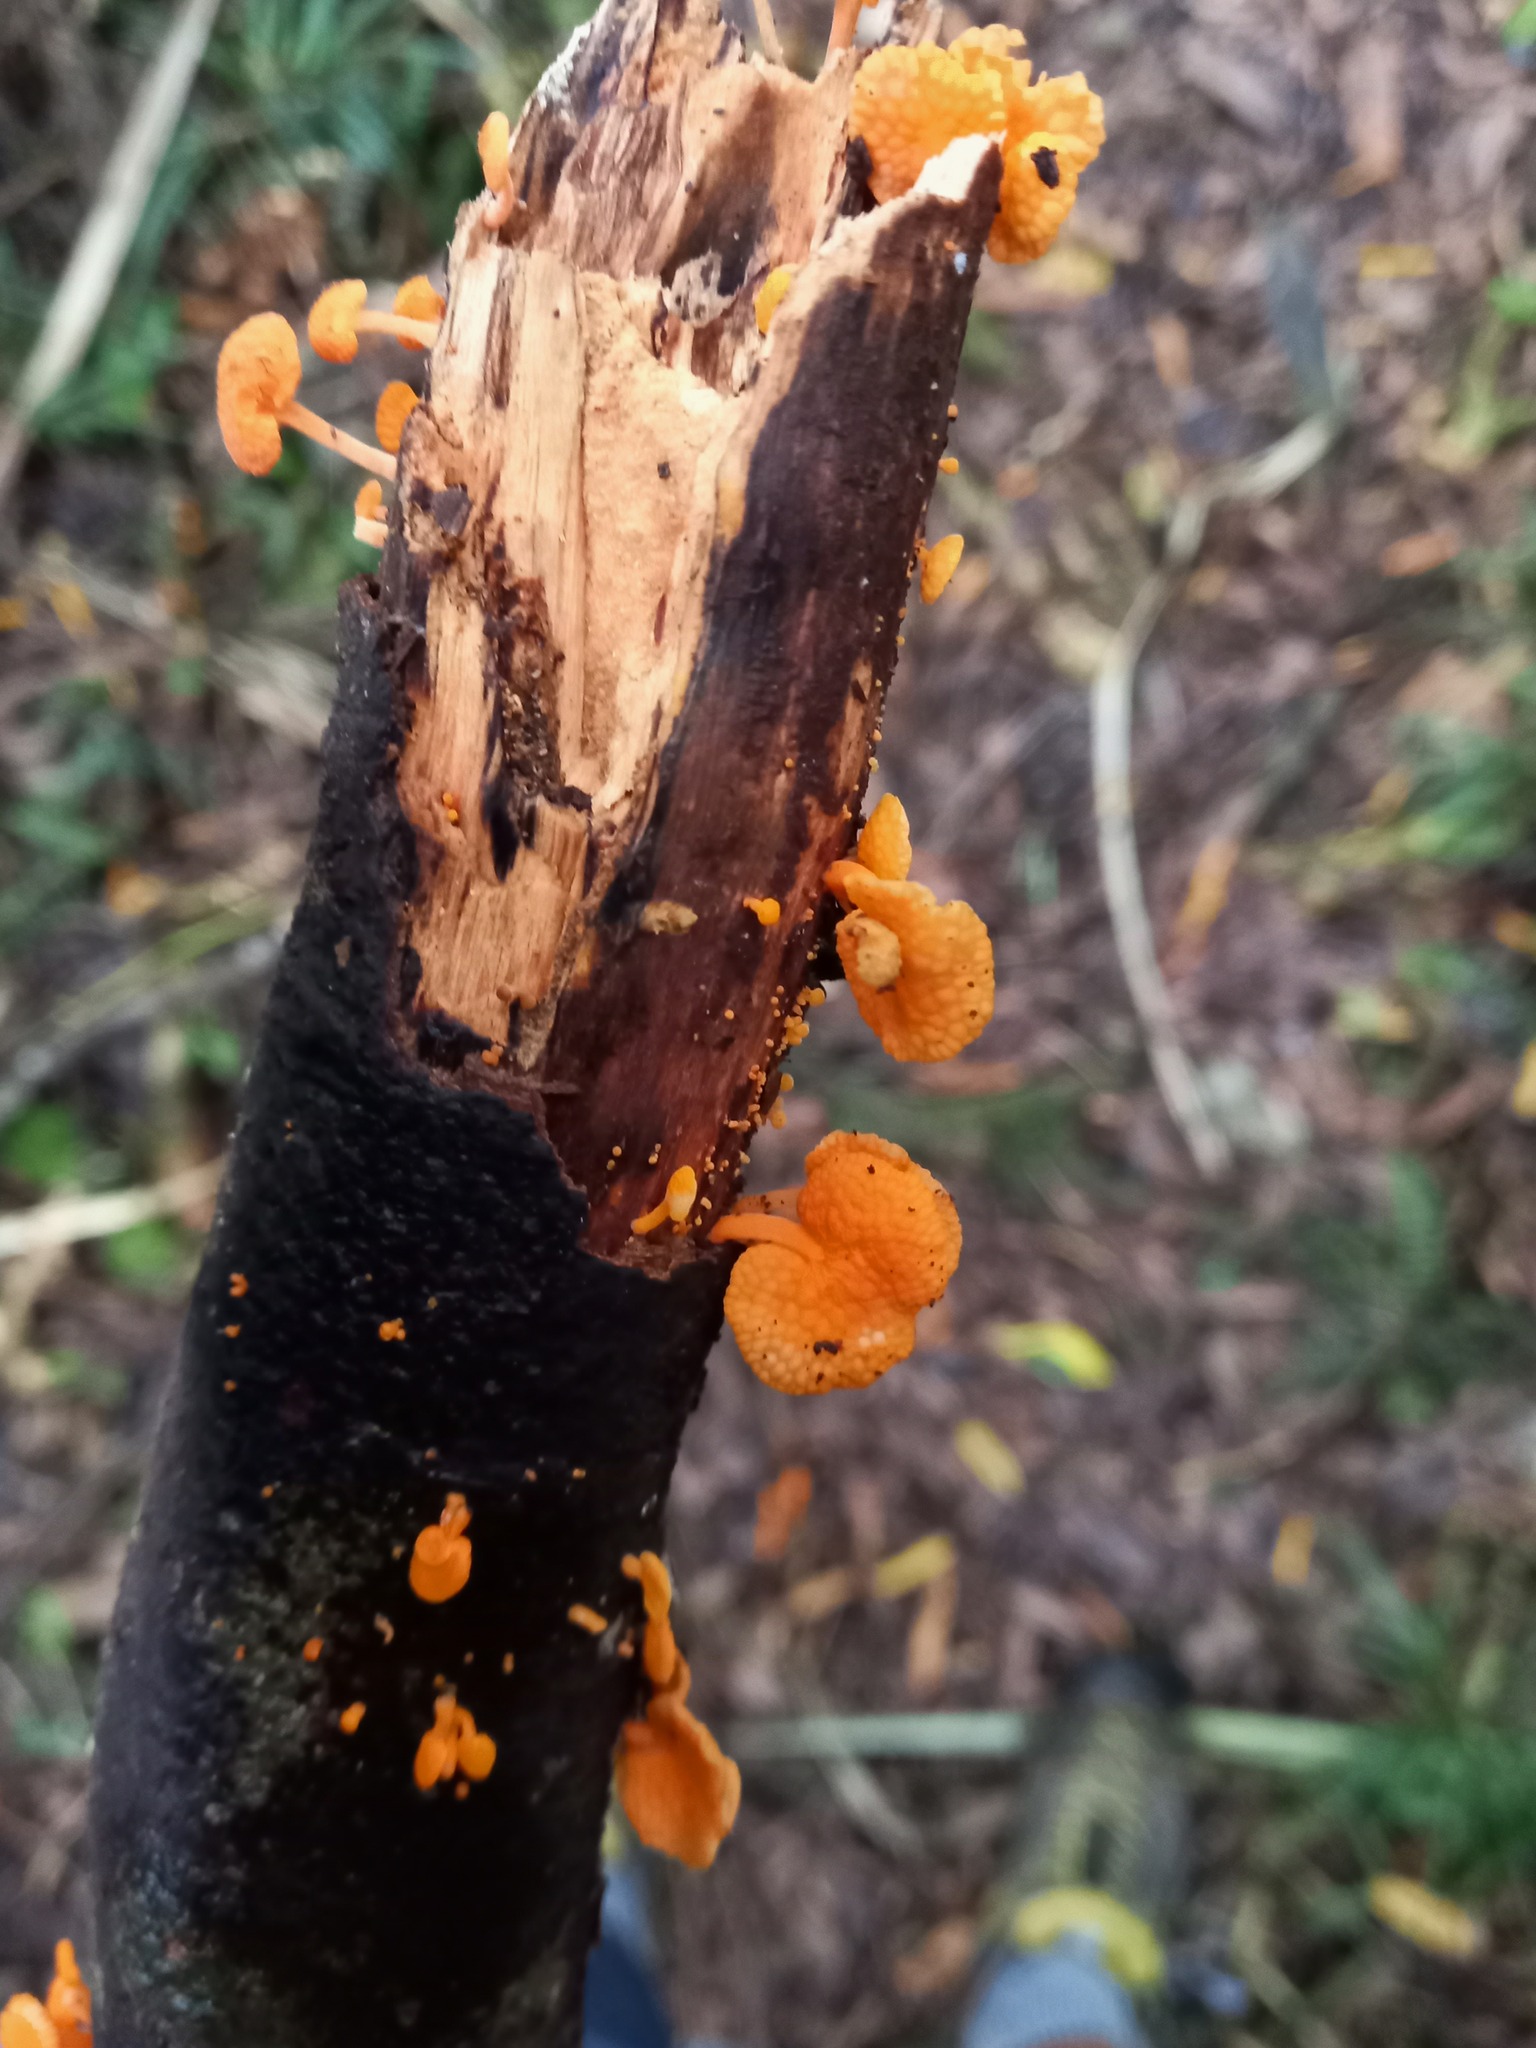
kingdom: Fungi
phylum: Basidiomycota
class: Agaricomycetes
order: Agaricales
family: Mycenaceae
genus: Favolaschia
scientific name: Favolaschia claudopus
